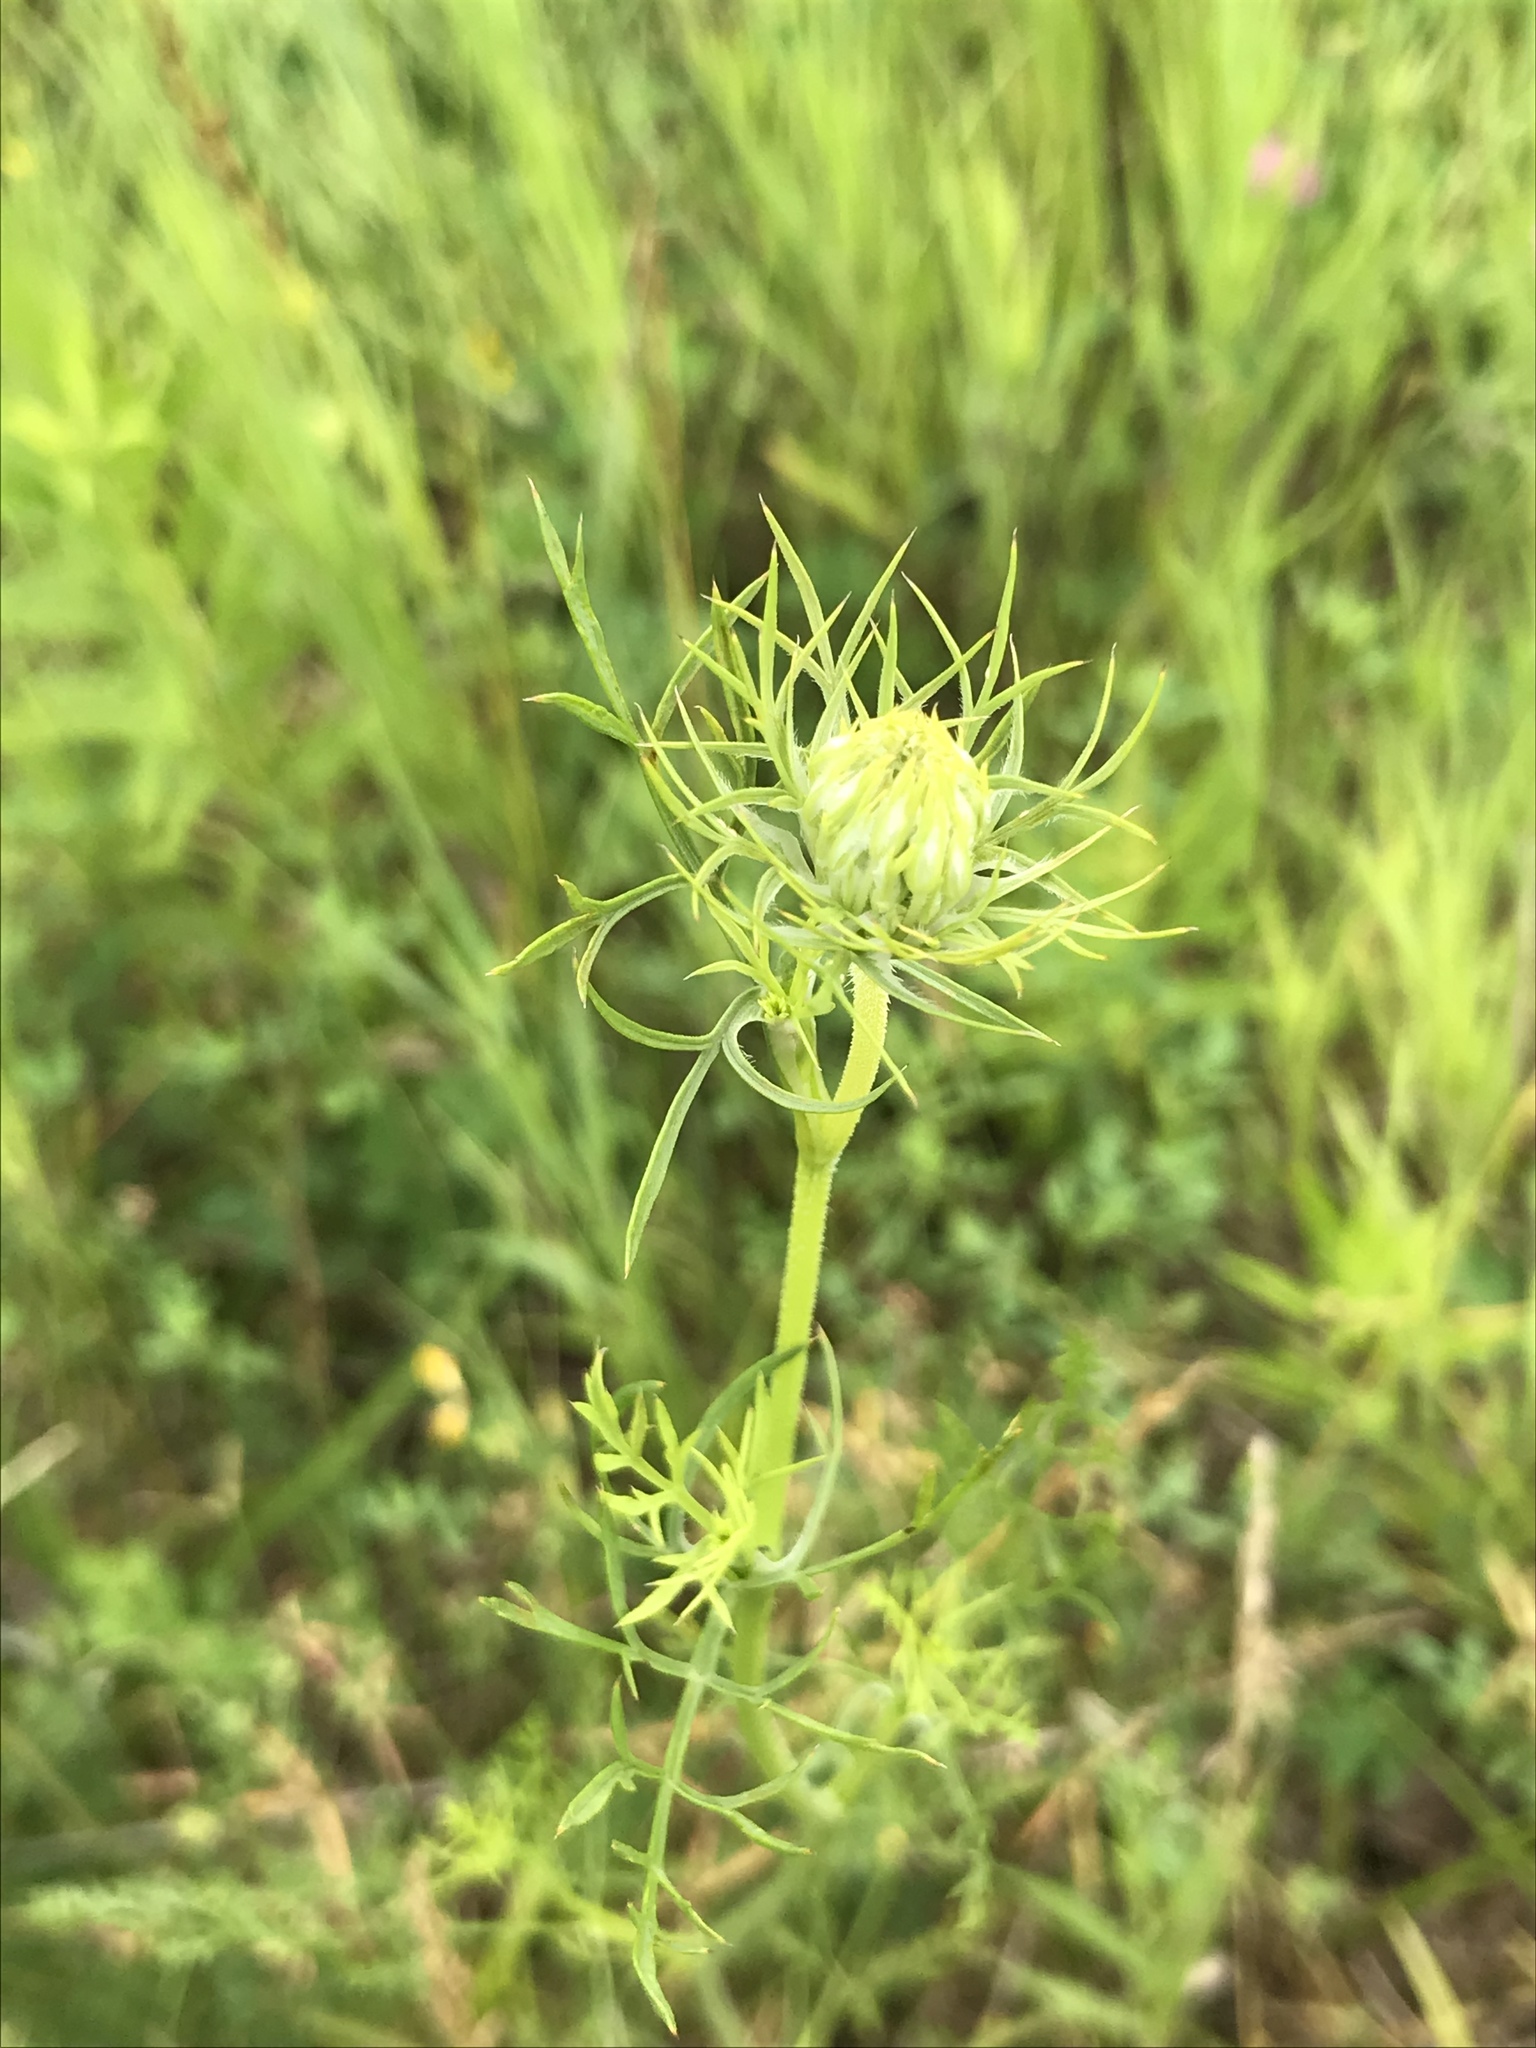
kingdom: Plantae
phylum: Tracheophyta
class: Magnoliopsida
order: Apiales
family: Apiaceae
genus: Daucus
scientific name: Daucus carota
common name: Wild carrot
